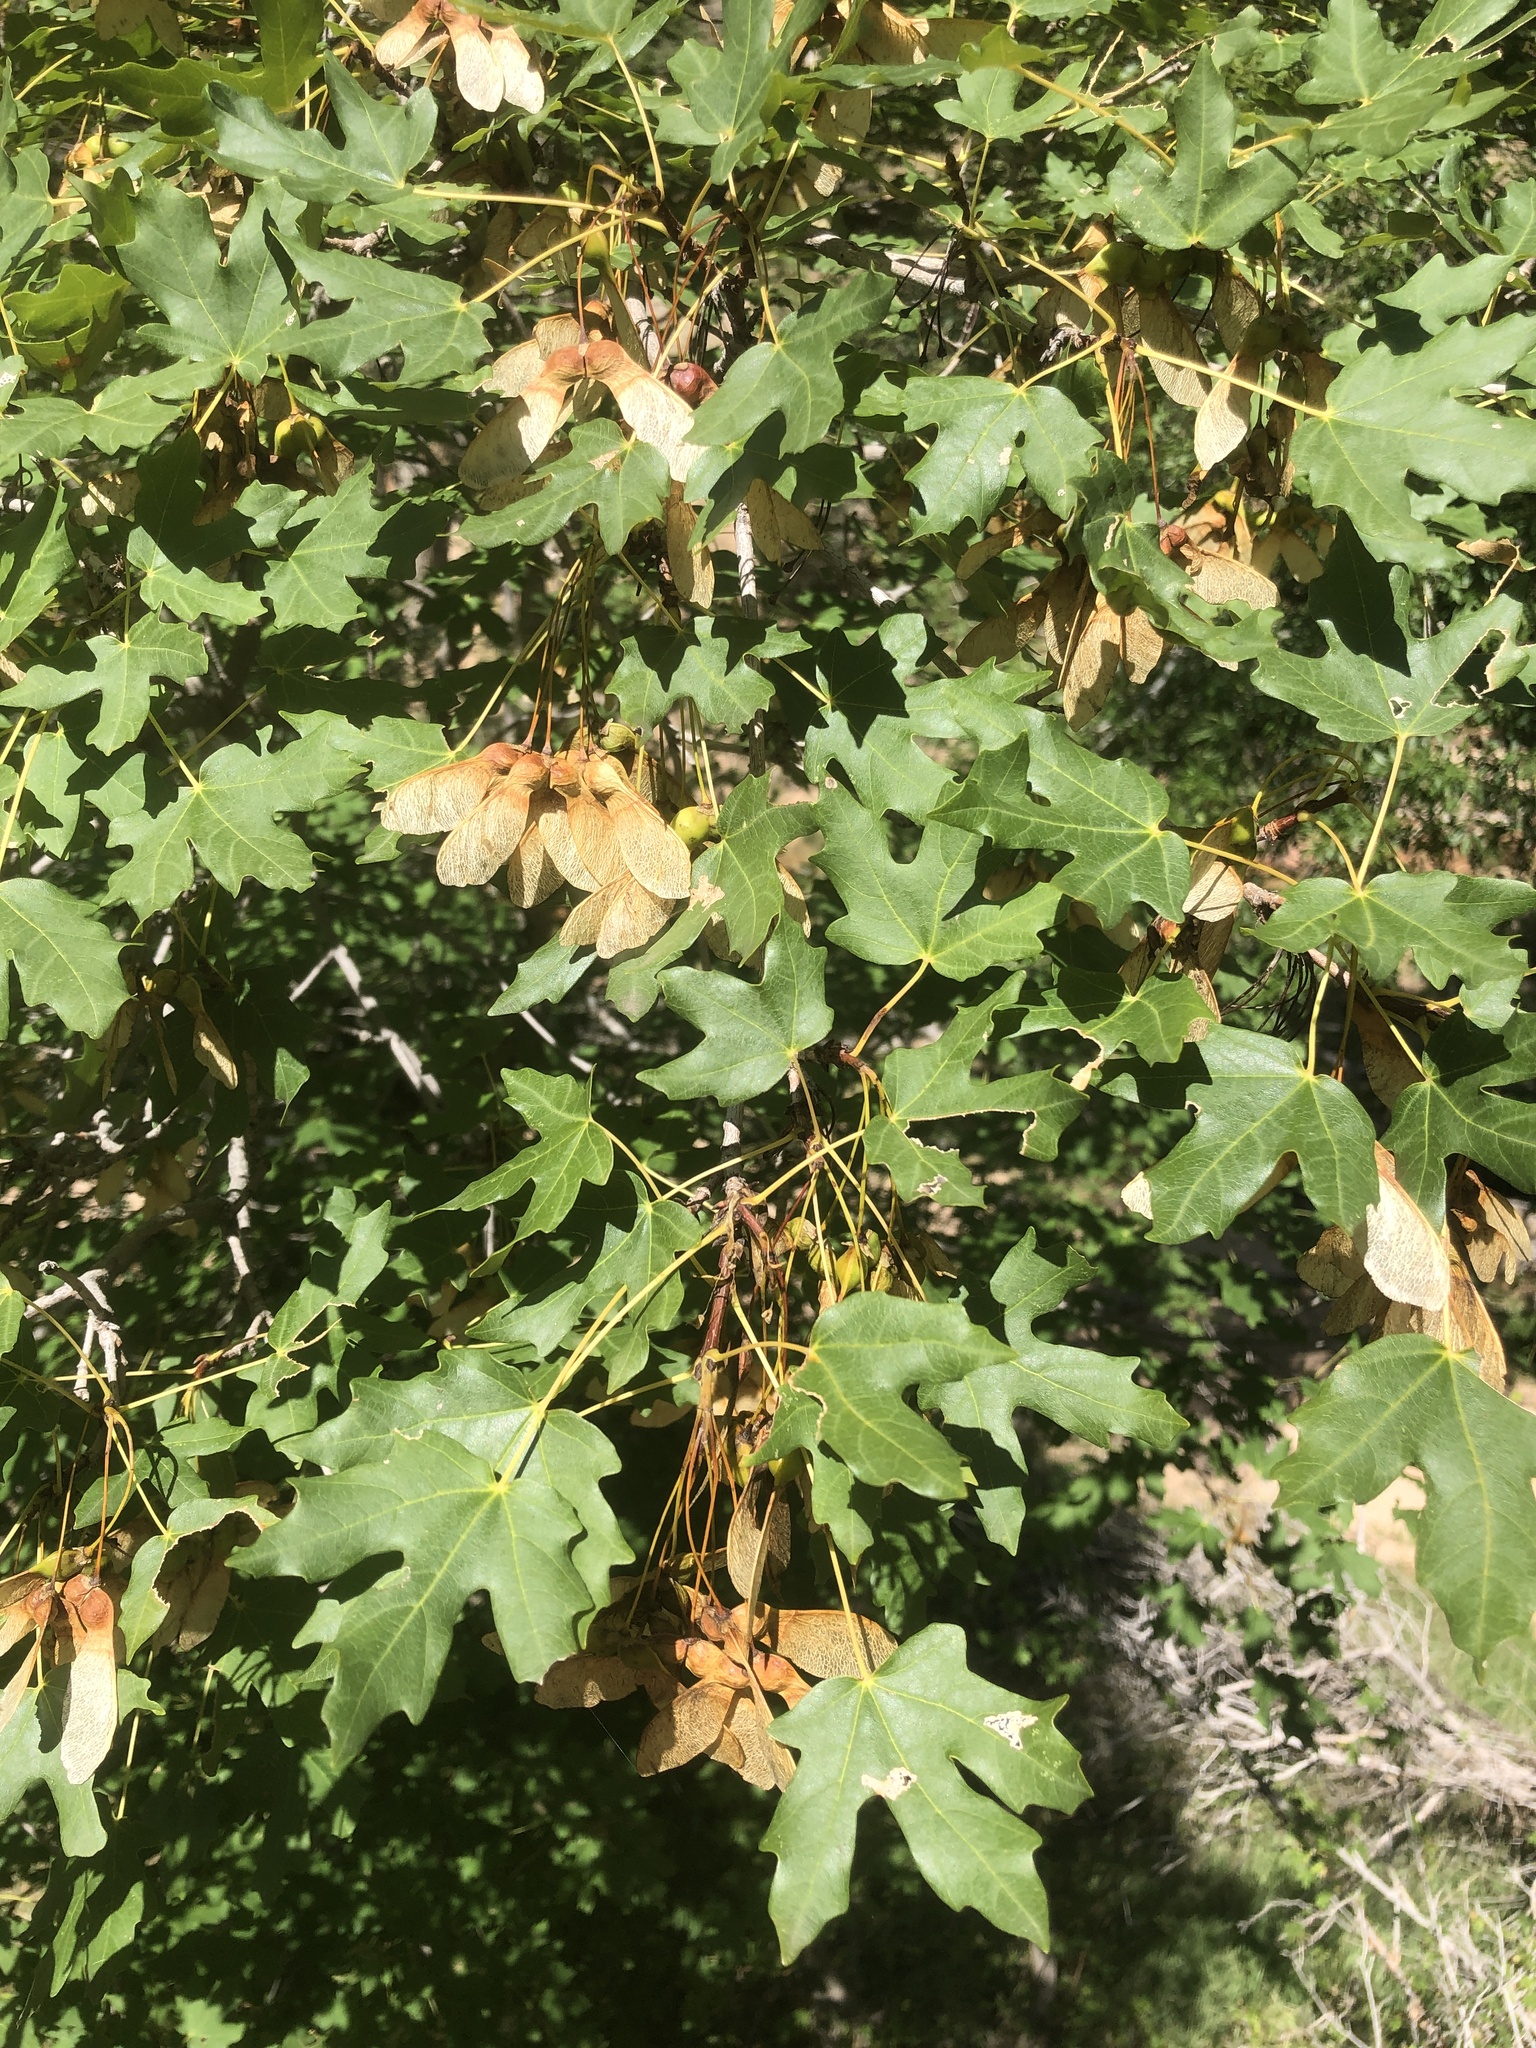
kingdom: Plantae
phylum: Tracheophyta
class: Magnoliopsida
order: Sapindales
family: Sapindaceae
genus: Acer
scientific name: Acer grandidentatum
